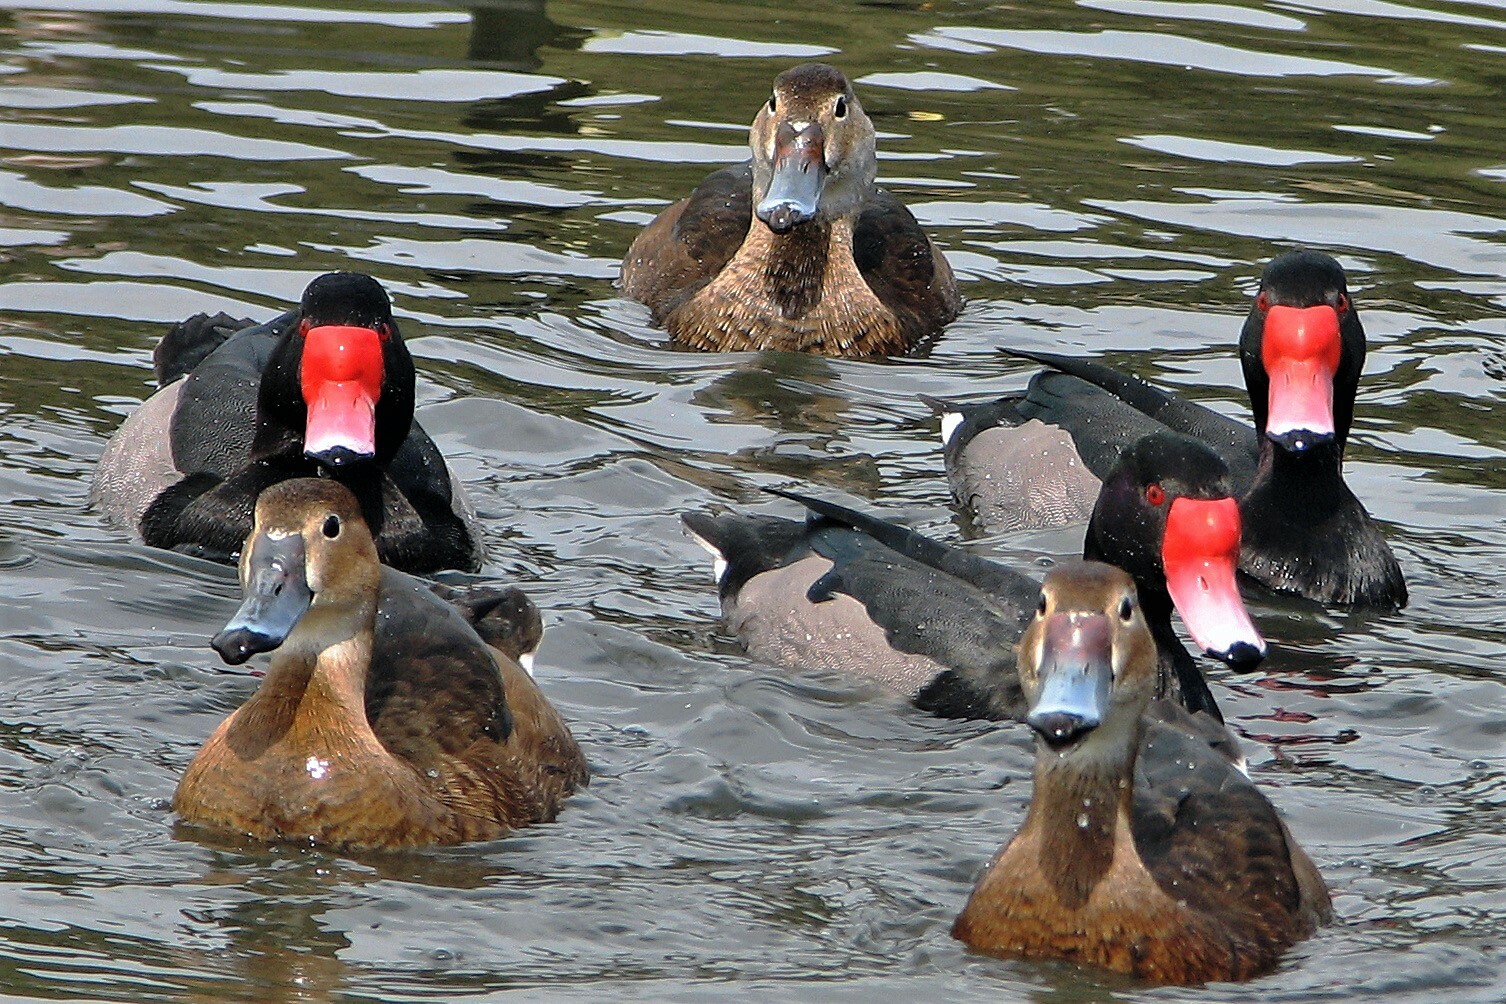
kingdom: Animalia
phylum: Chordata
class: Aves
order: Anseriformes
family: Anatidae
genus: Netta
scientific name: Netta peposaca
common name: Rosy-billed pochard
